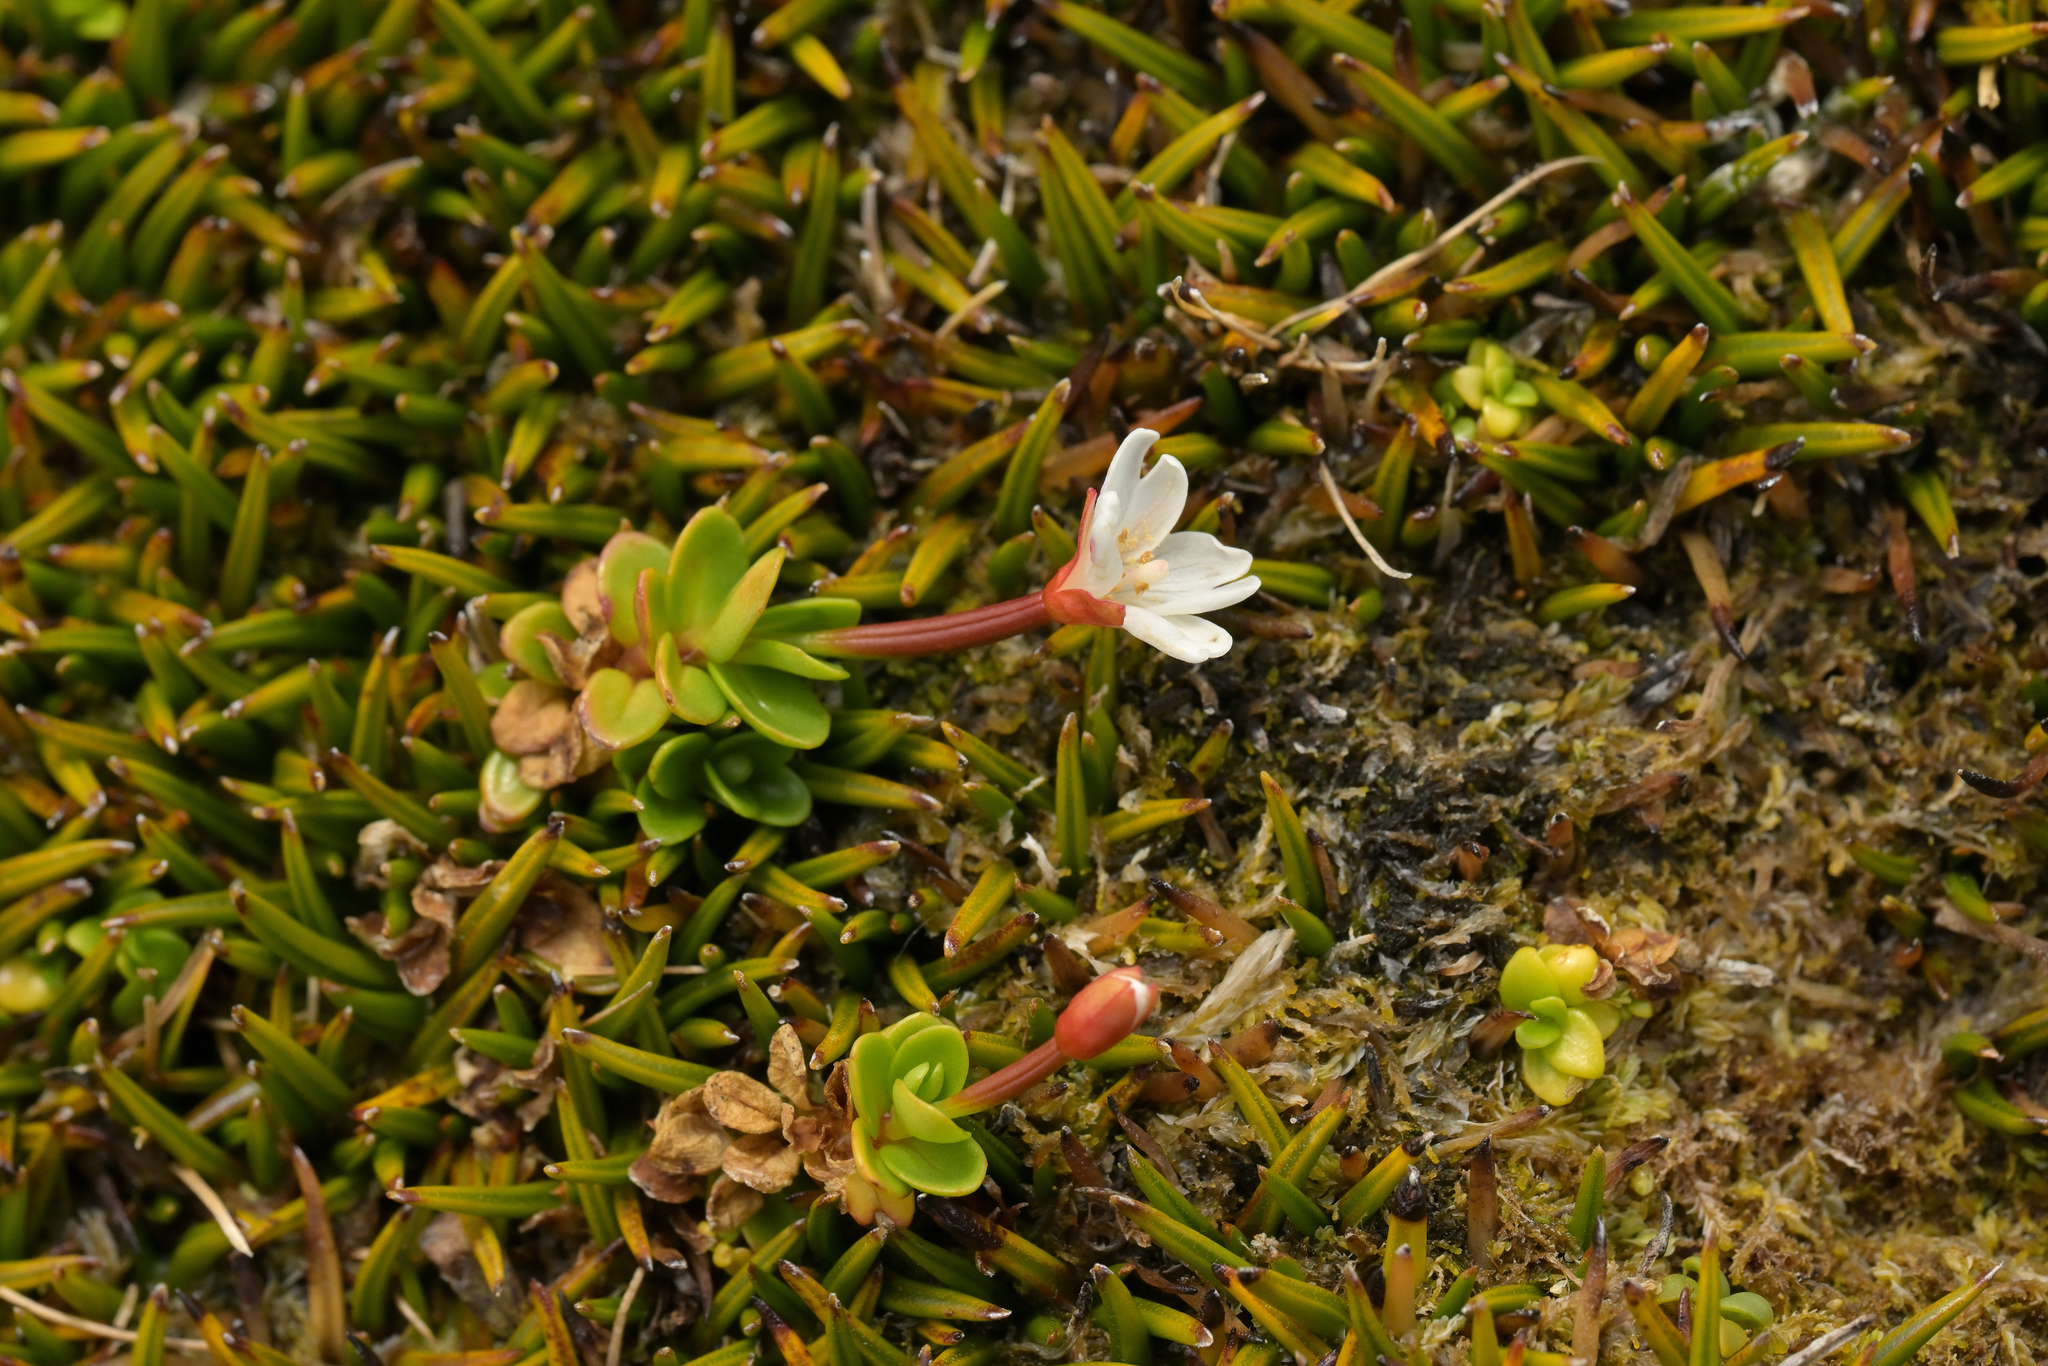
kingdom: Plantae
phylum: Tracheophyta
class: Magnoliopsida
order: Myrtales
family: Onagraceae
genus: Epilobium
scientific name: Epilobium confertifolium
